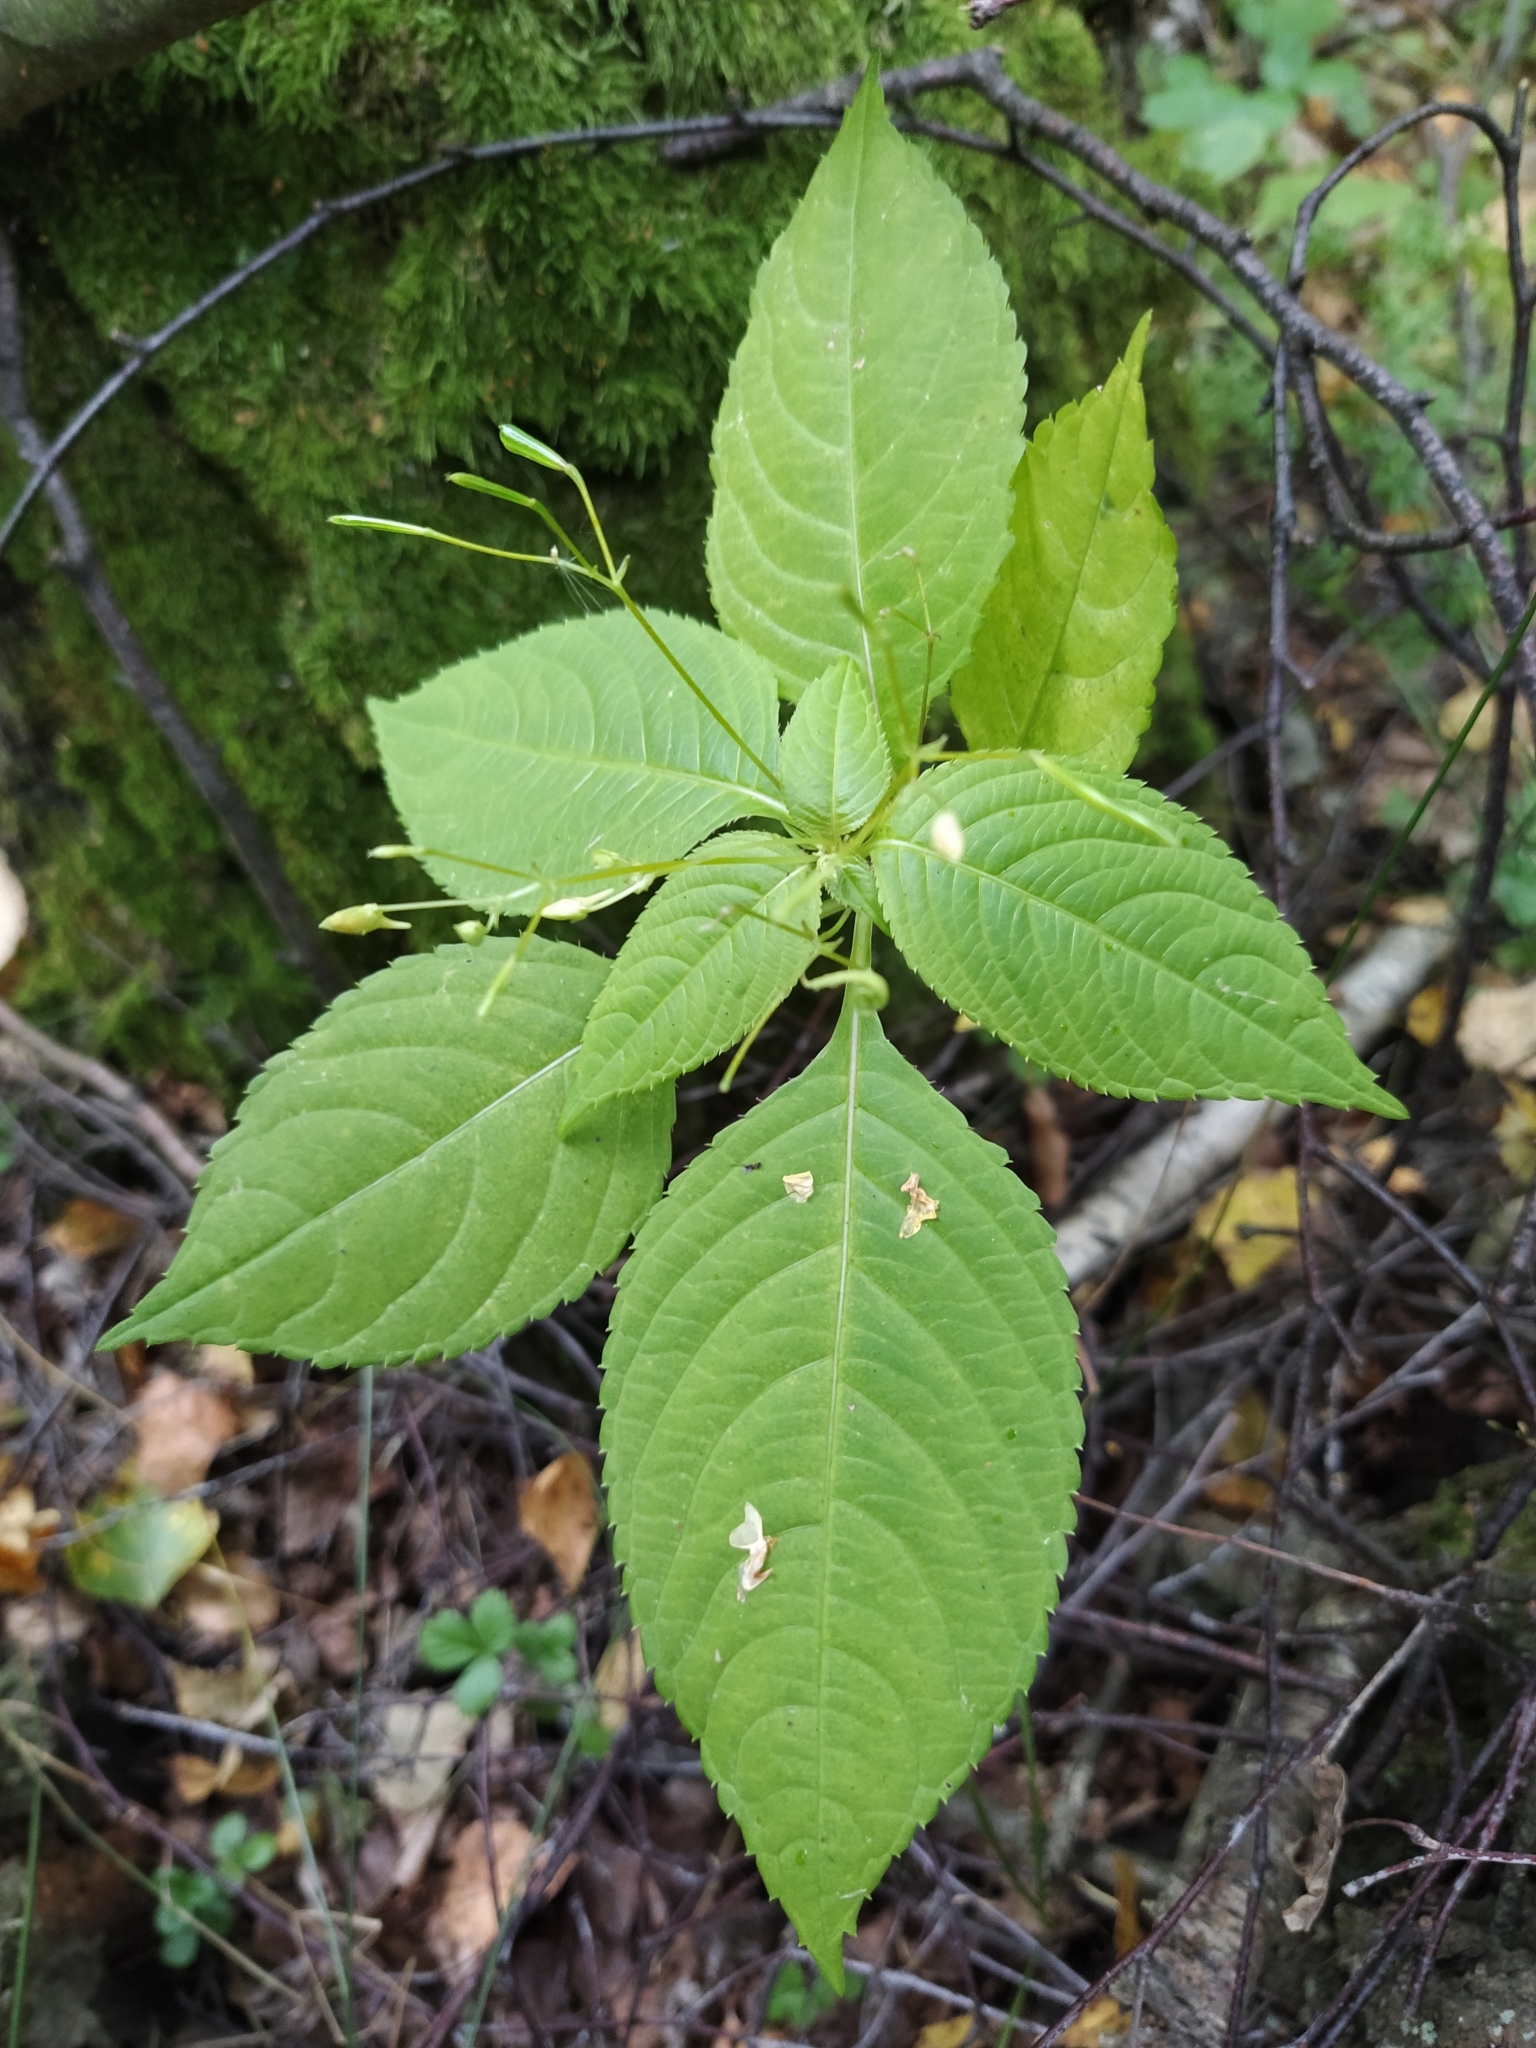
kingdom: Plantae
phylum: Tracheophyta
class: Magnoliopsida
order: Ericales
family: Balsaminaceae
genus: Impatiens
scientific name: Impatiens parviflora
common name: Small balsam
